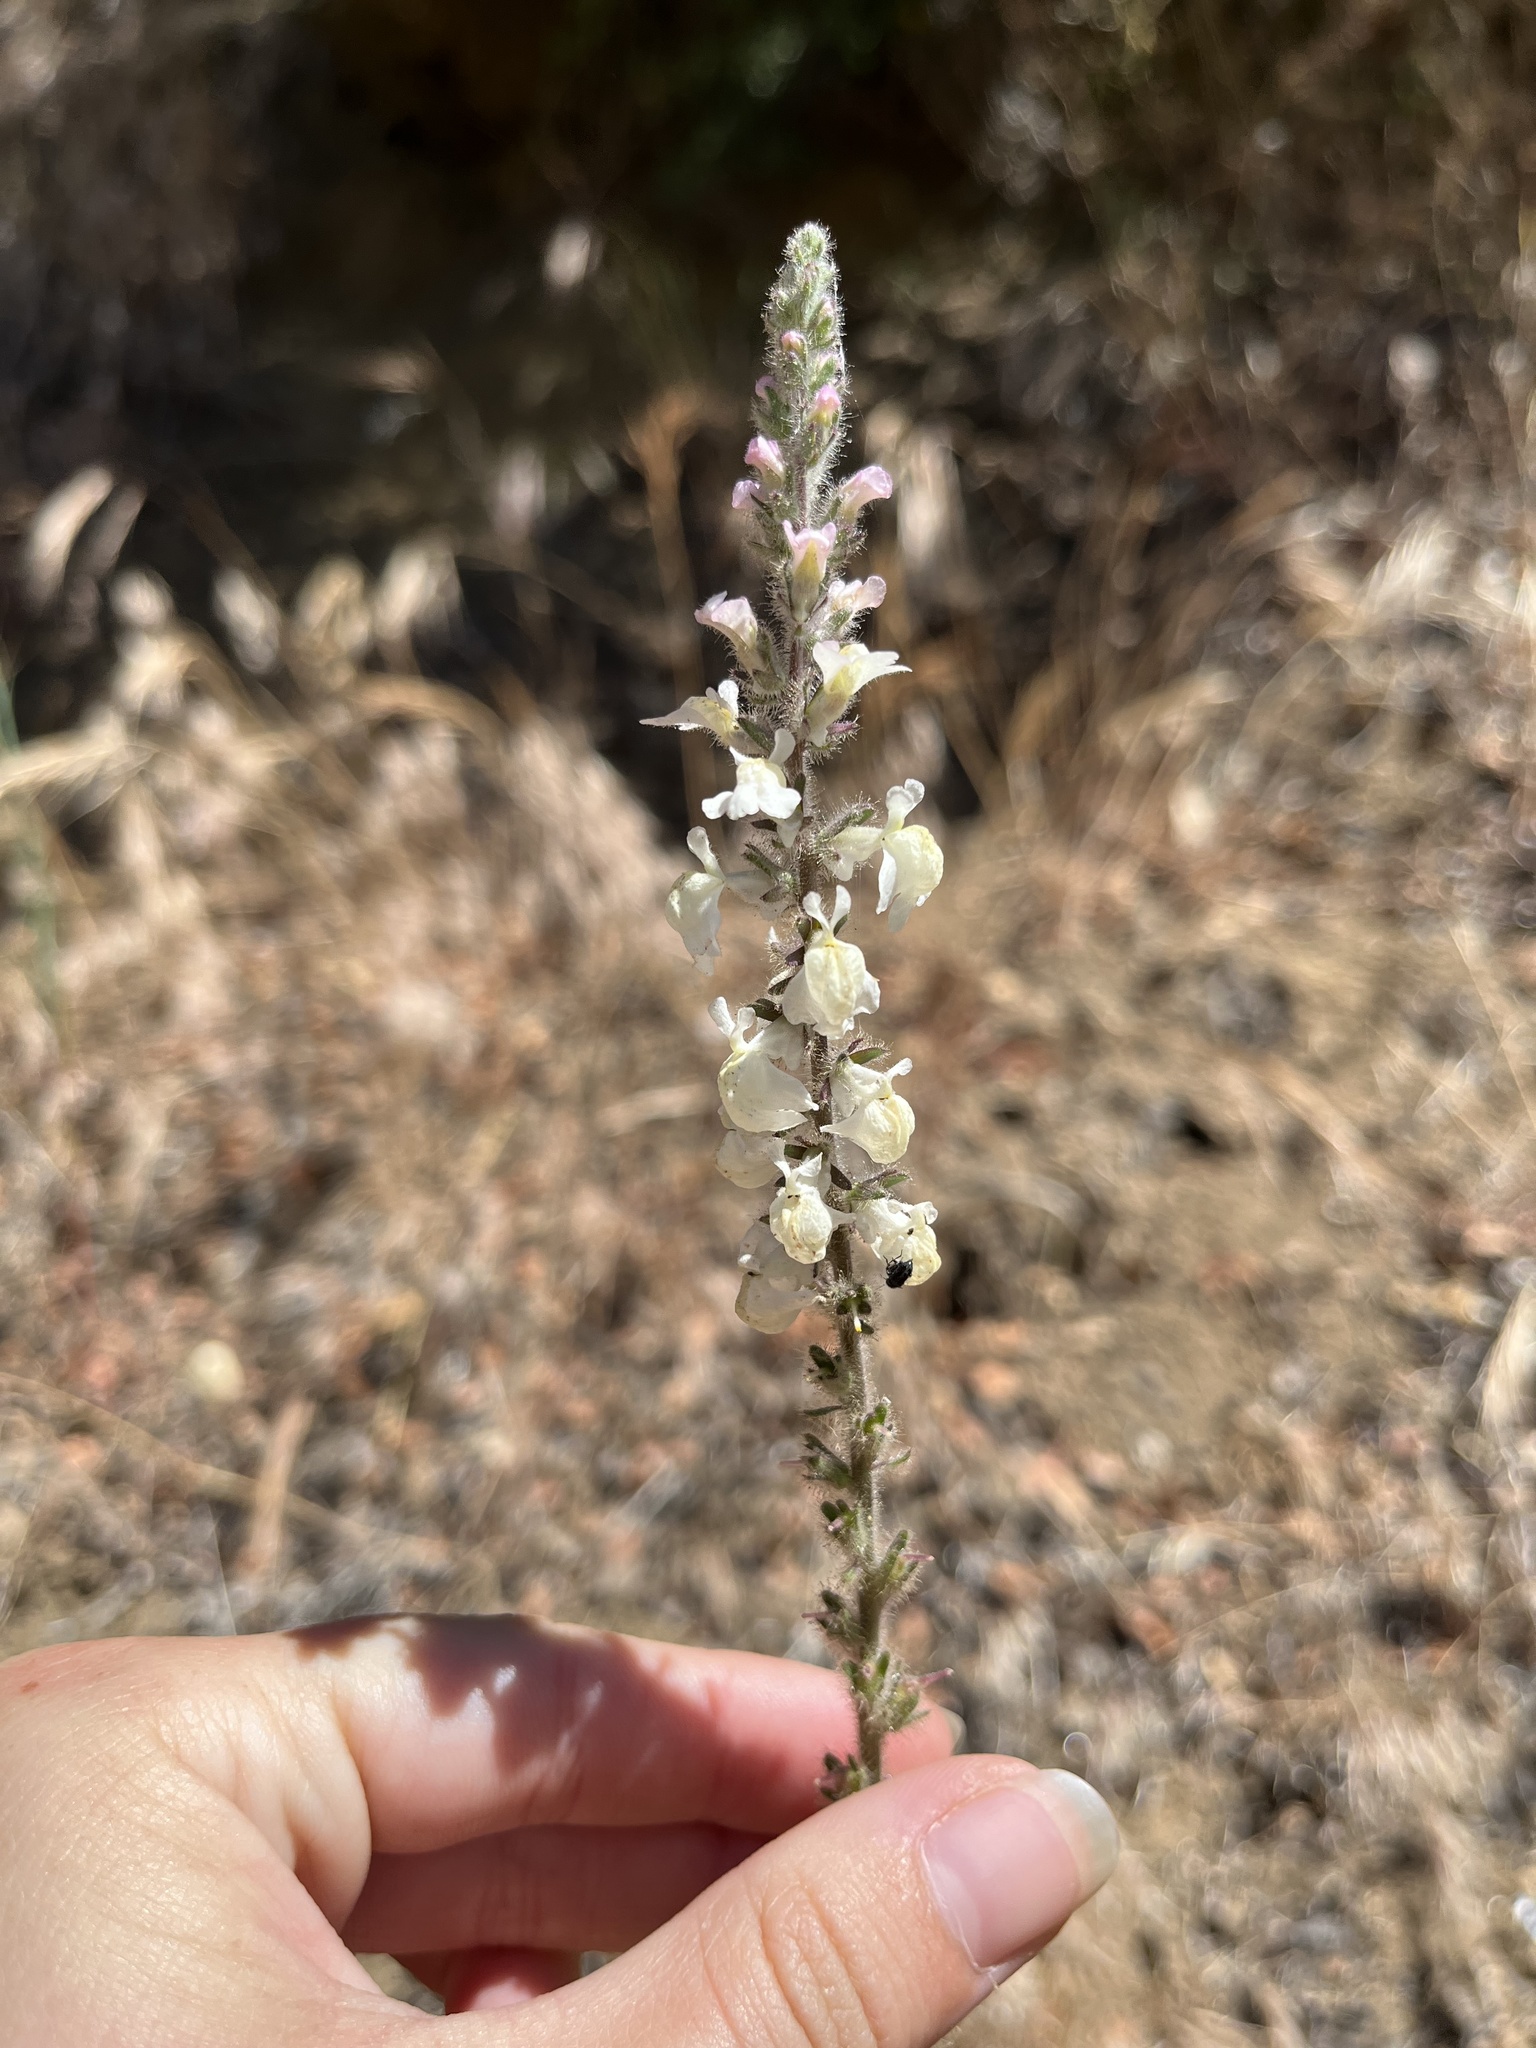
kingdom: Plantae
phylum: Tracheophyta
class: Magnoliopsida
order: Lamiales
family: Plantaginaceae
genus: Sairocarpus
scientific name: Sairocarpus coulterianus
